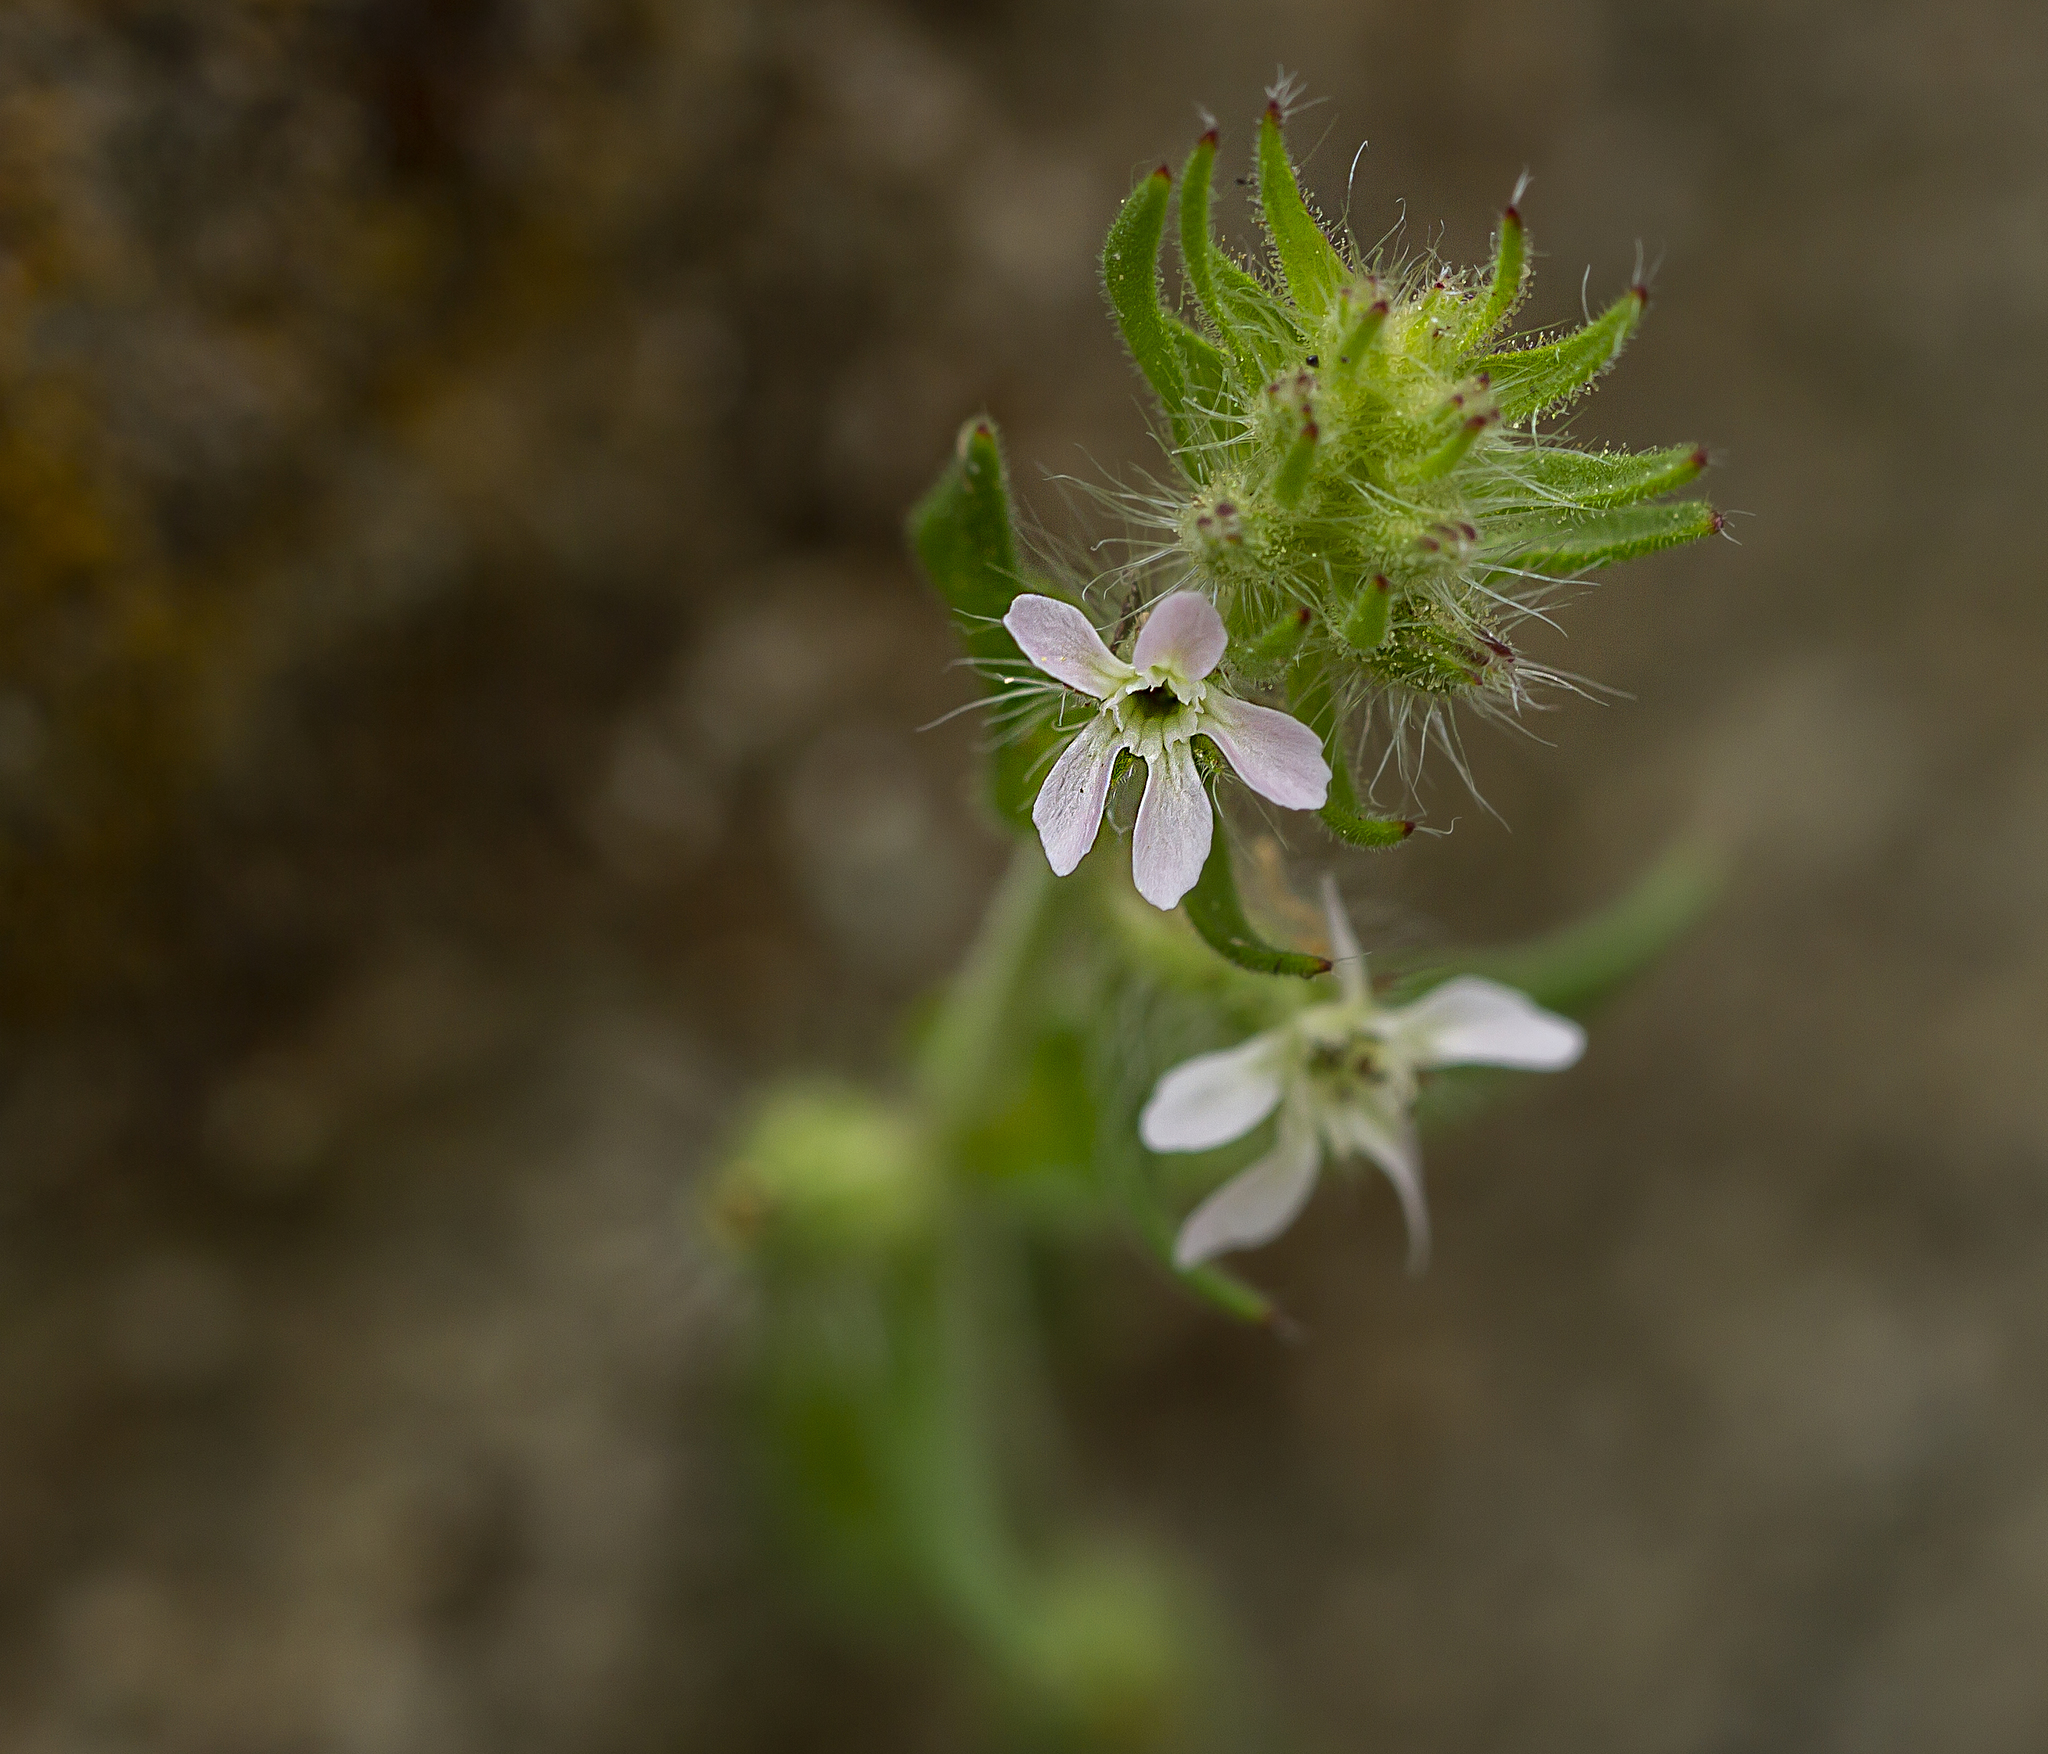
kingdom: Plantae
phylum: Tracheophyta
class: Magnoliopsida
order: Caryophyllales
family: Caryophyllaceae
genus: Silene
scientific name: Silene gallica
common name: Small-flowered catchfly
